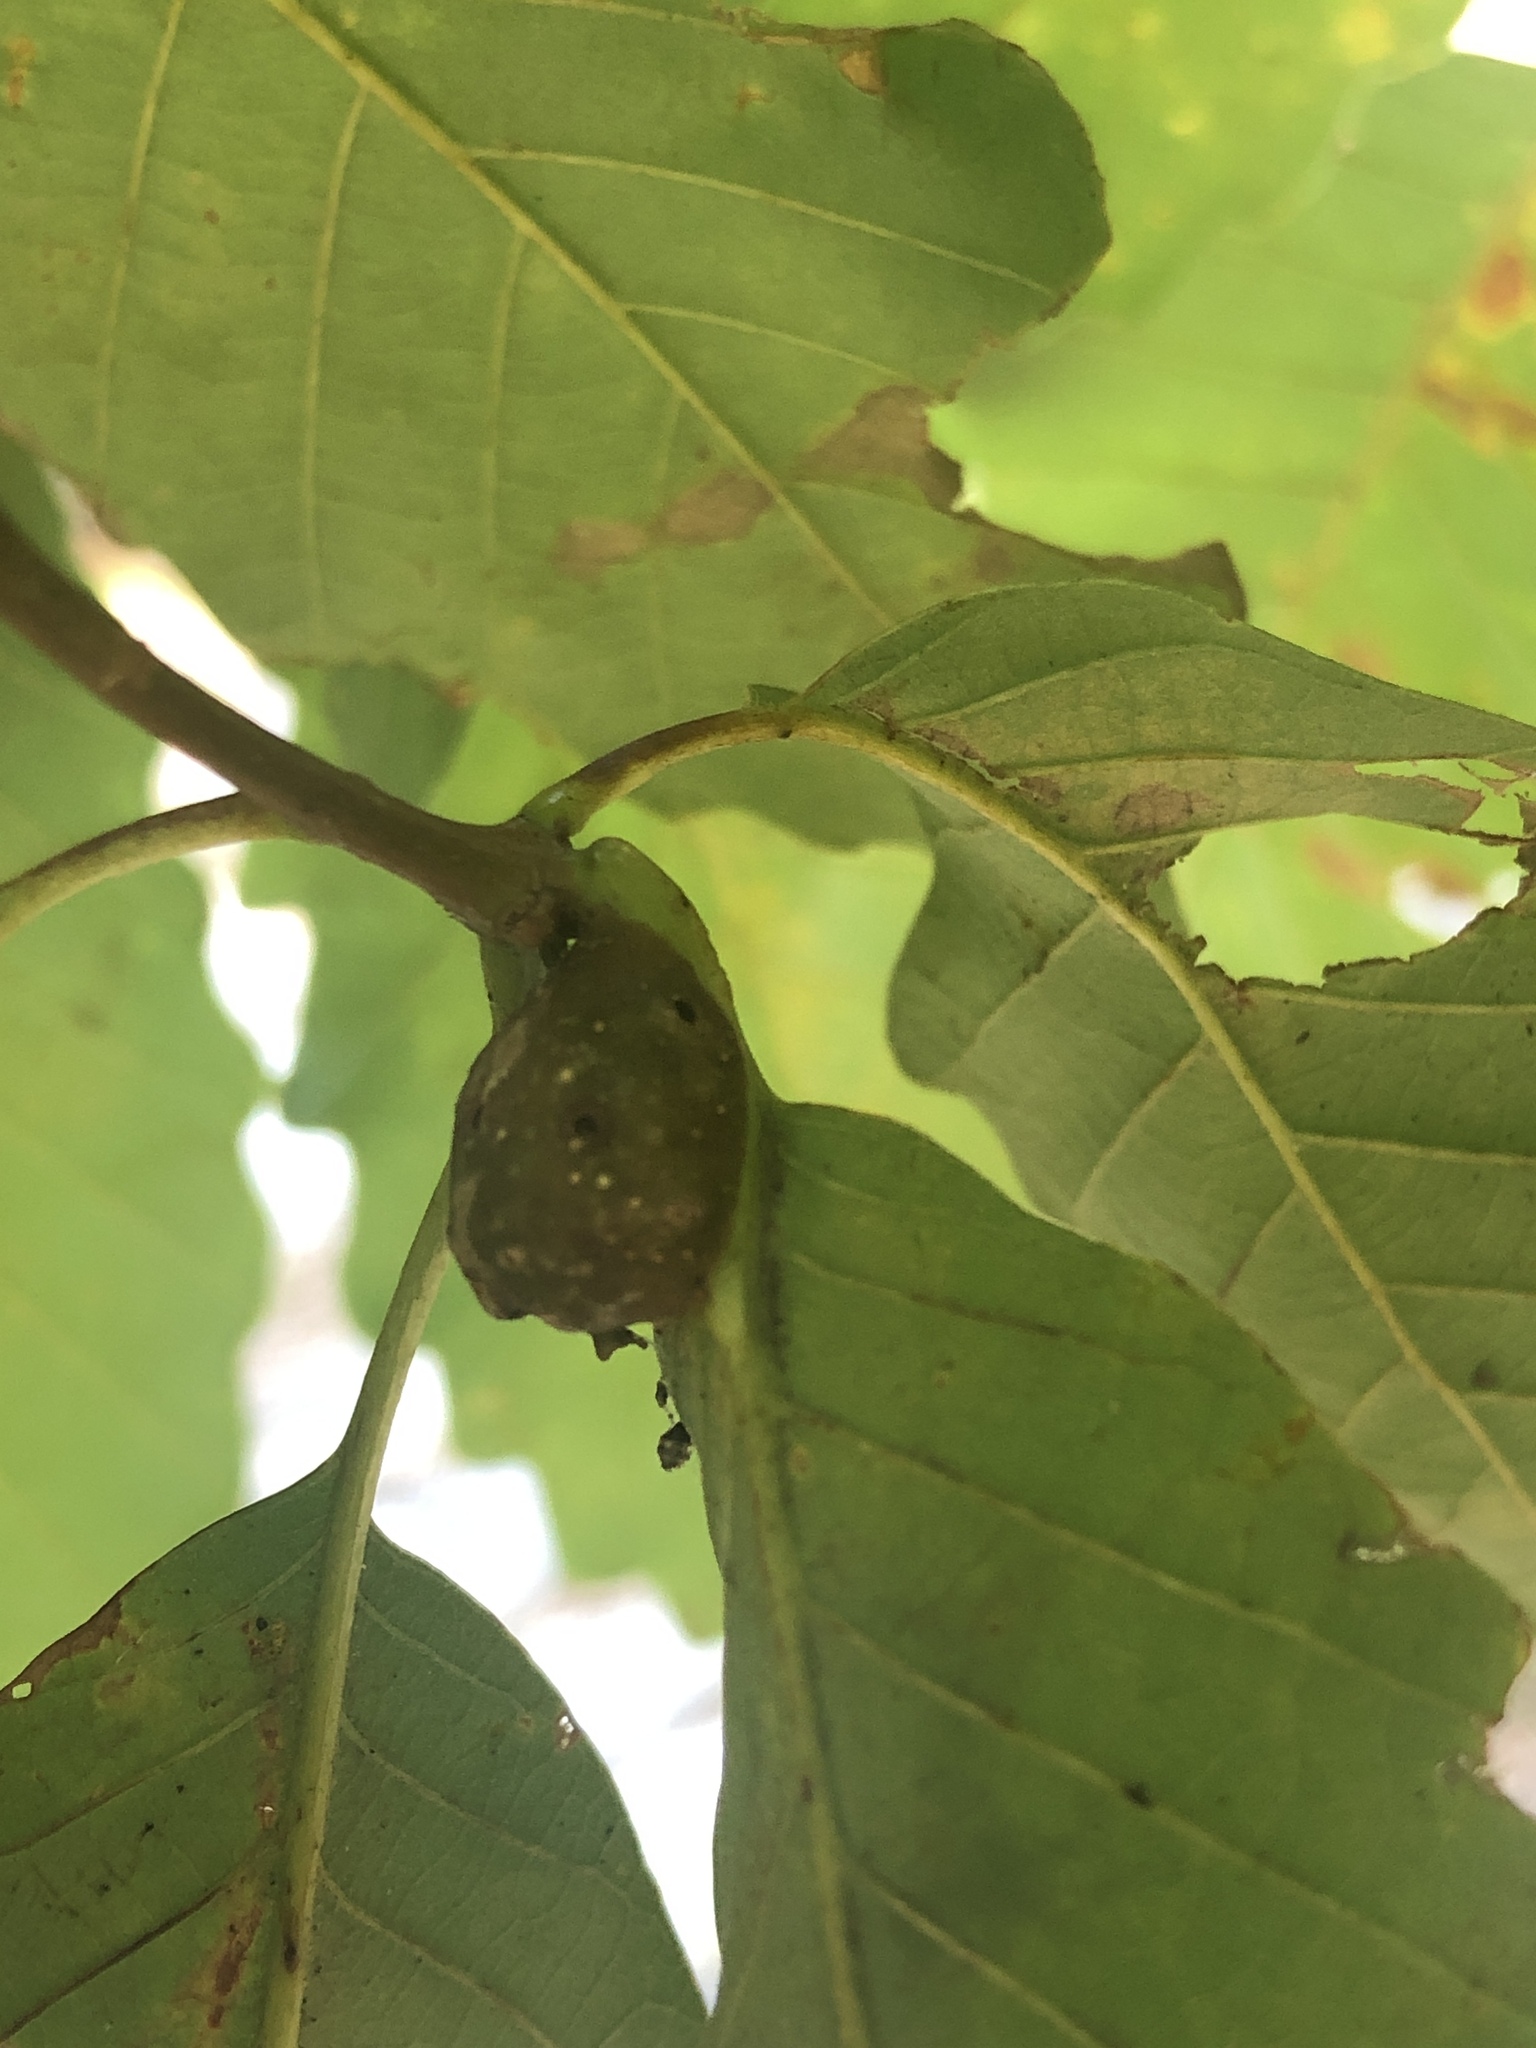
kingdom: Animalia
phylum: Arthropoda
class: Insecta
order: Hymenoptera
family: Cynipidae
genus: Andricus
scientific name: Andricus
